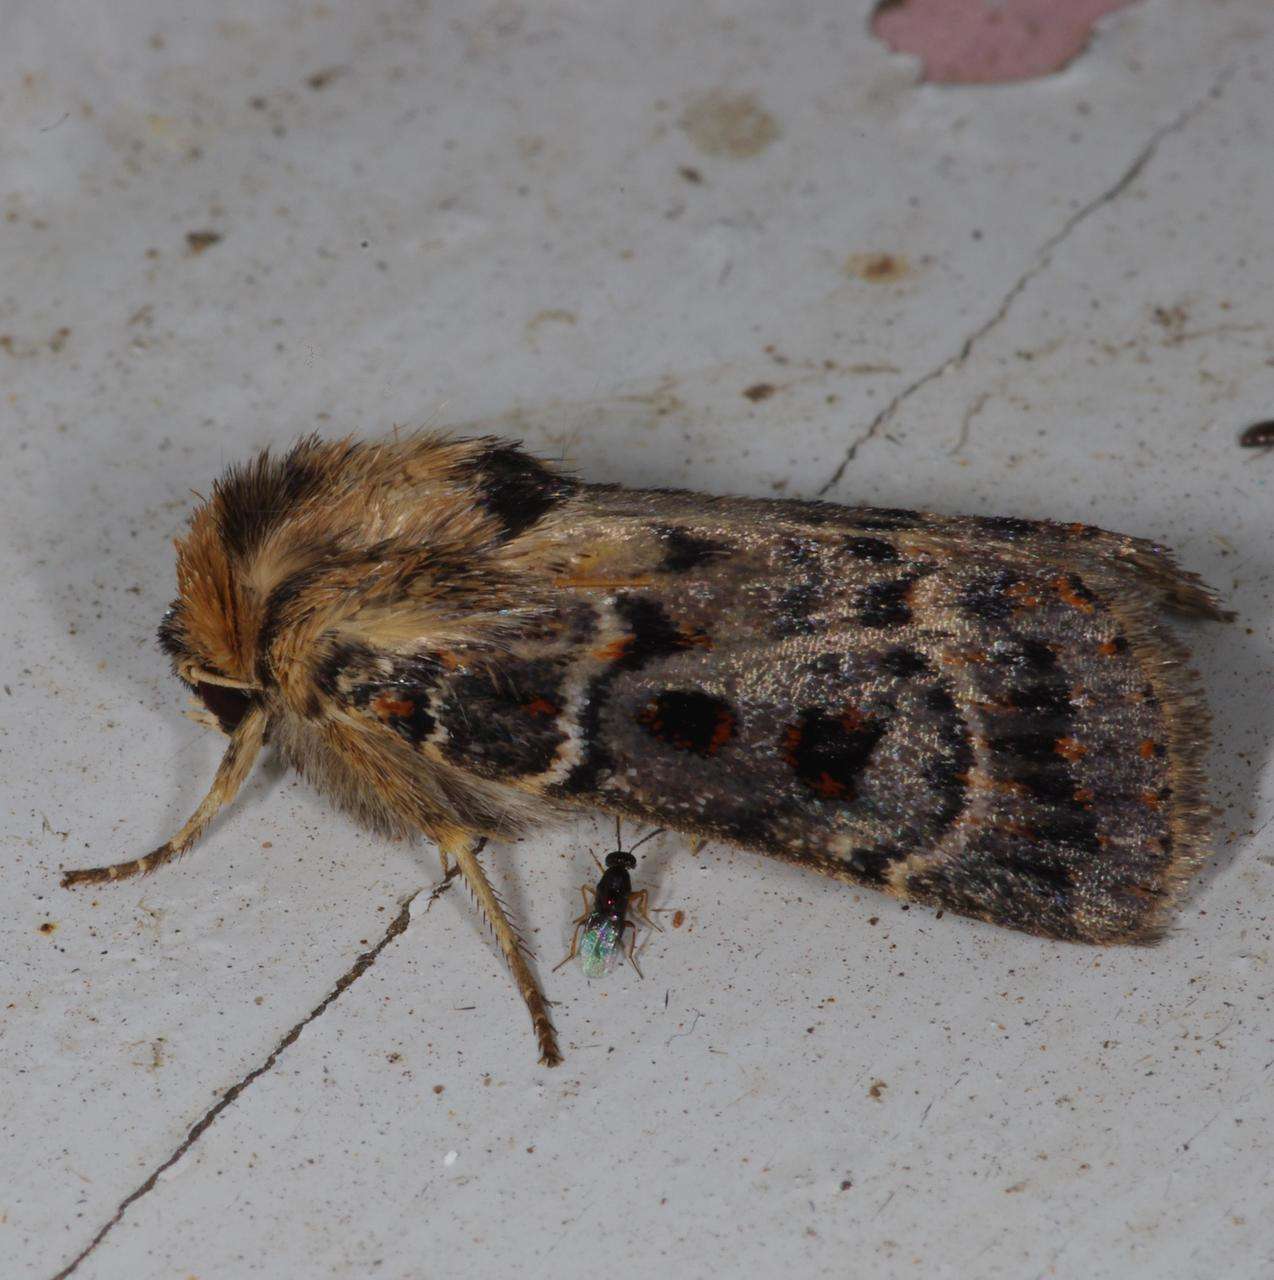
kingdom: Animalia
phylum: Arthropoda
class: Insecta
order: Lepidoptera
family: Noctuidae
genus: Proteuxoa
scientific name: Proteuxoa sanguinipuncta
